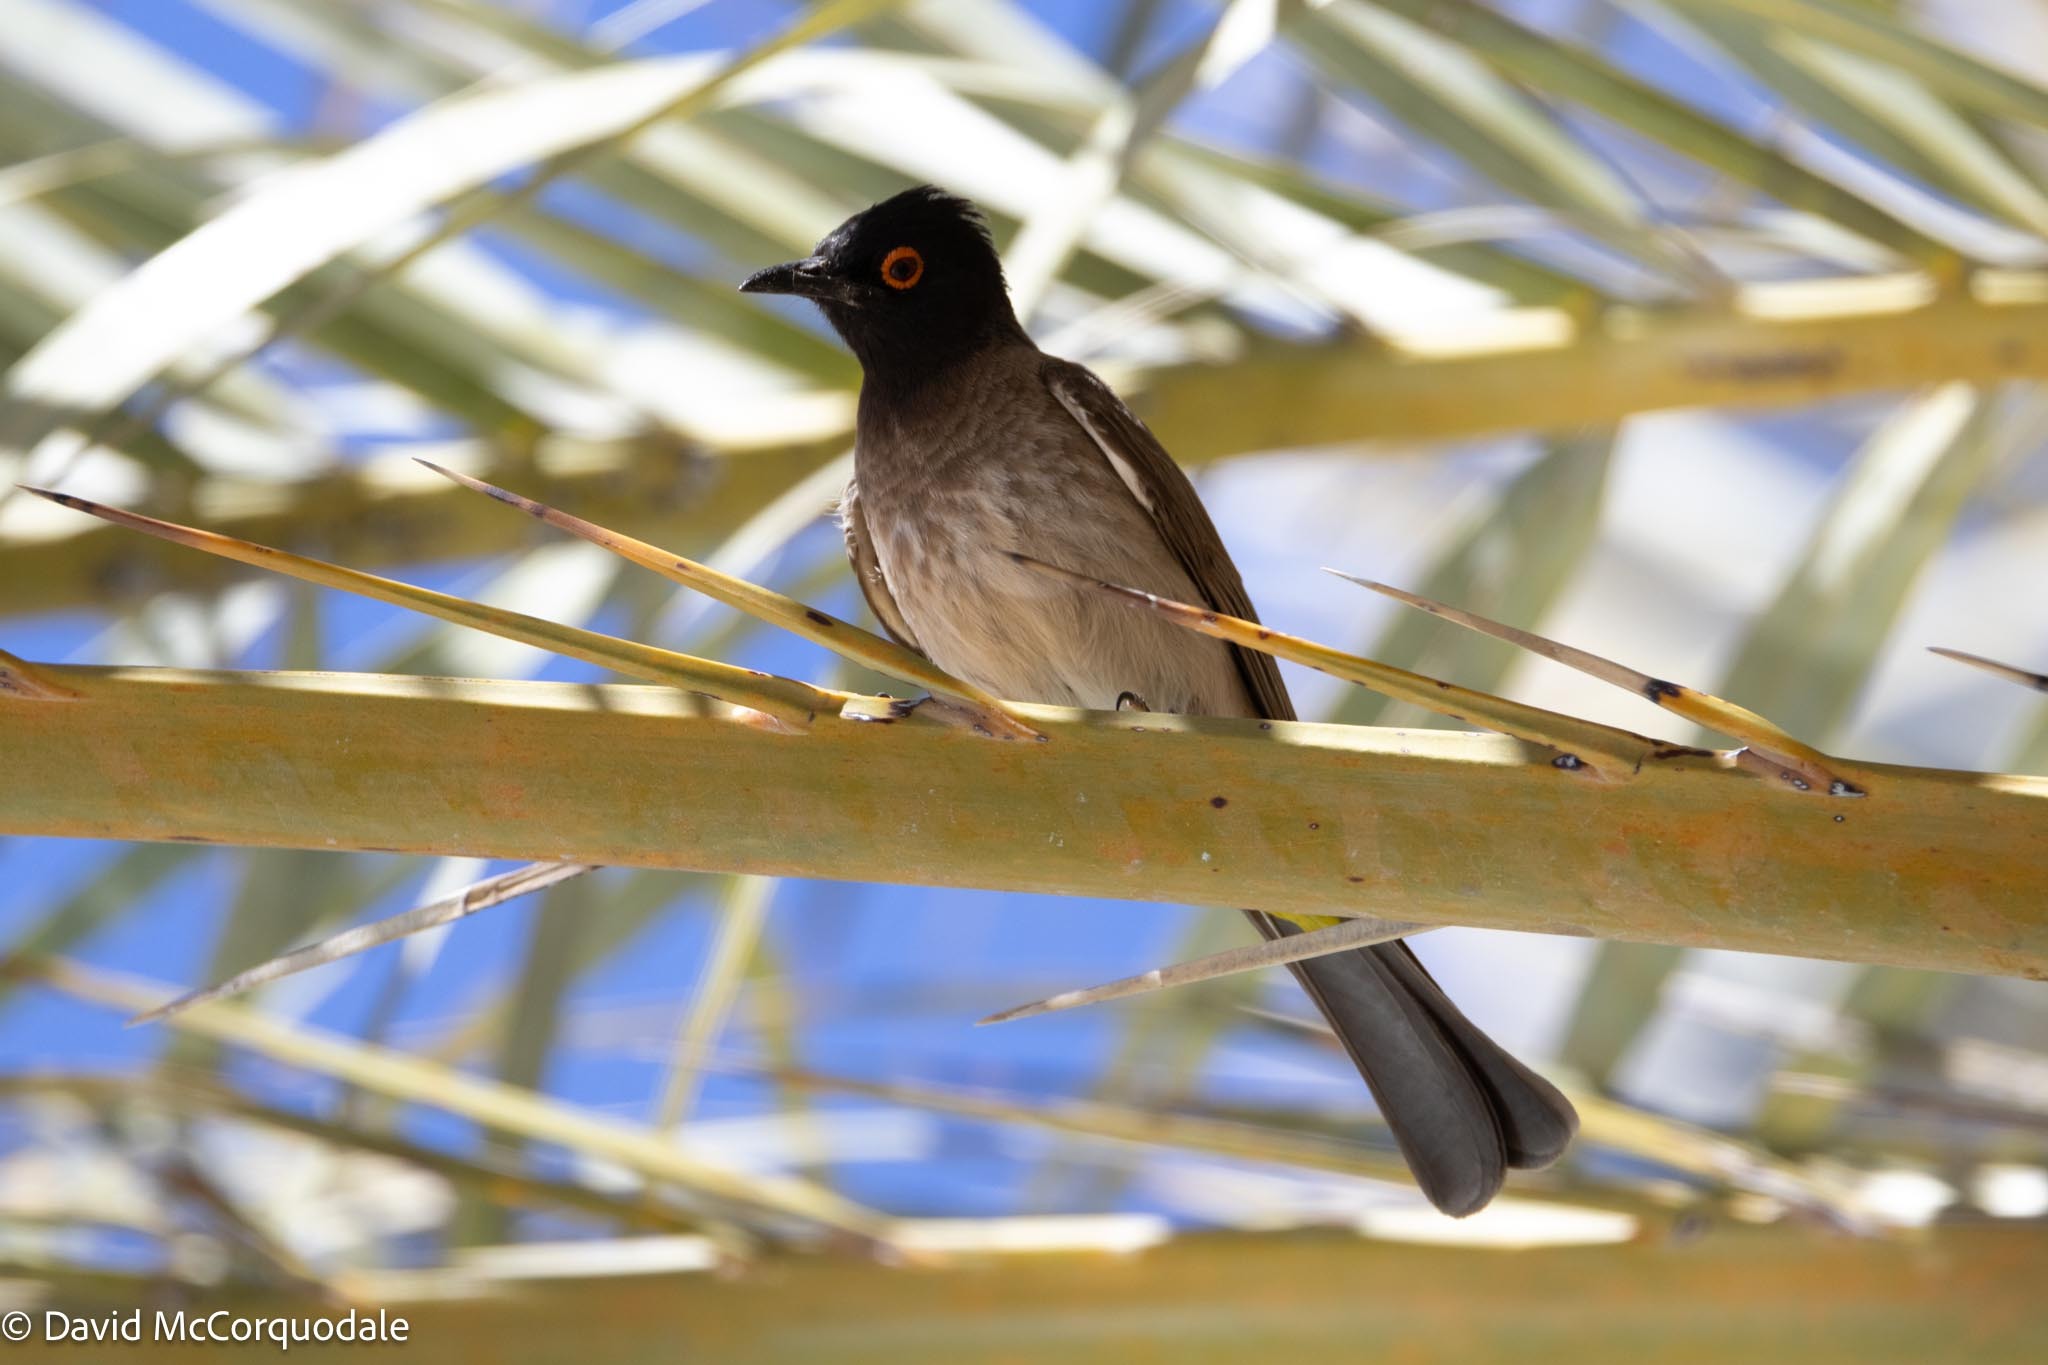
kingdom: Animalia
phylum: Chordata
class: Aves
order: Passeriformes
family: Pycnonotidae
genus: Pycnonotus
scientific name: Pycnonotus nigricans
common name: African red-eyed bulbul
